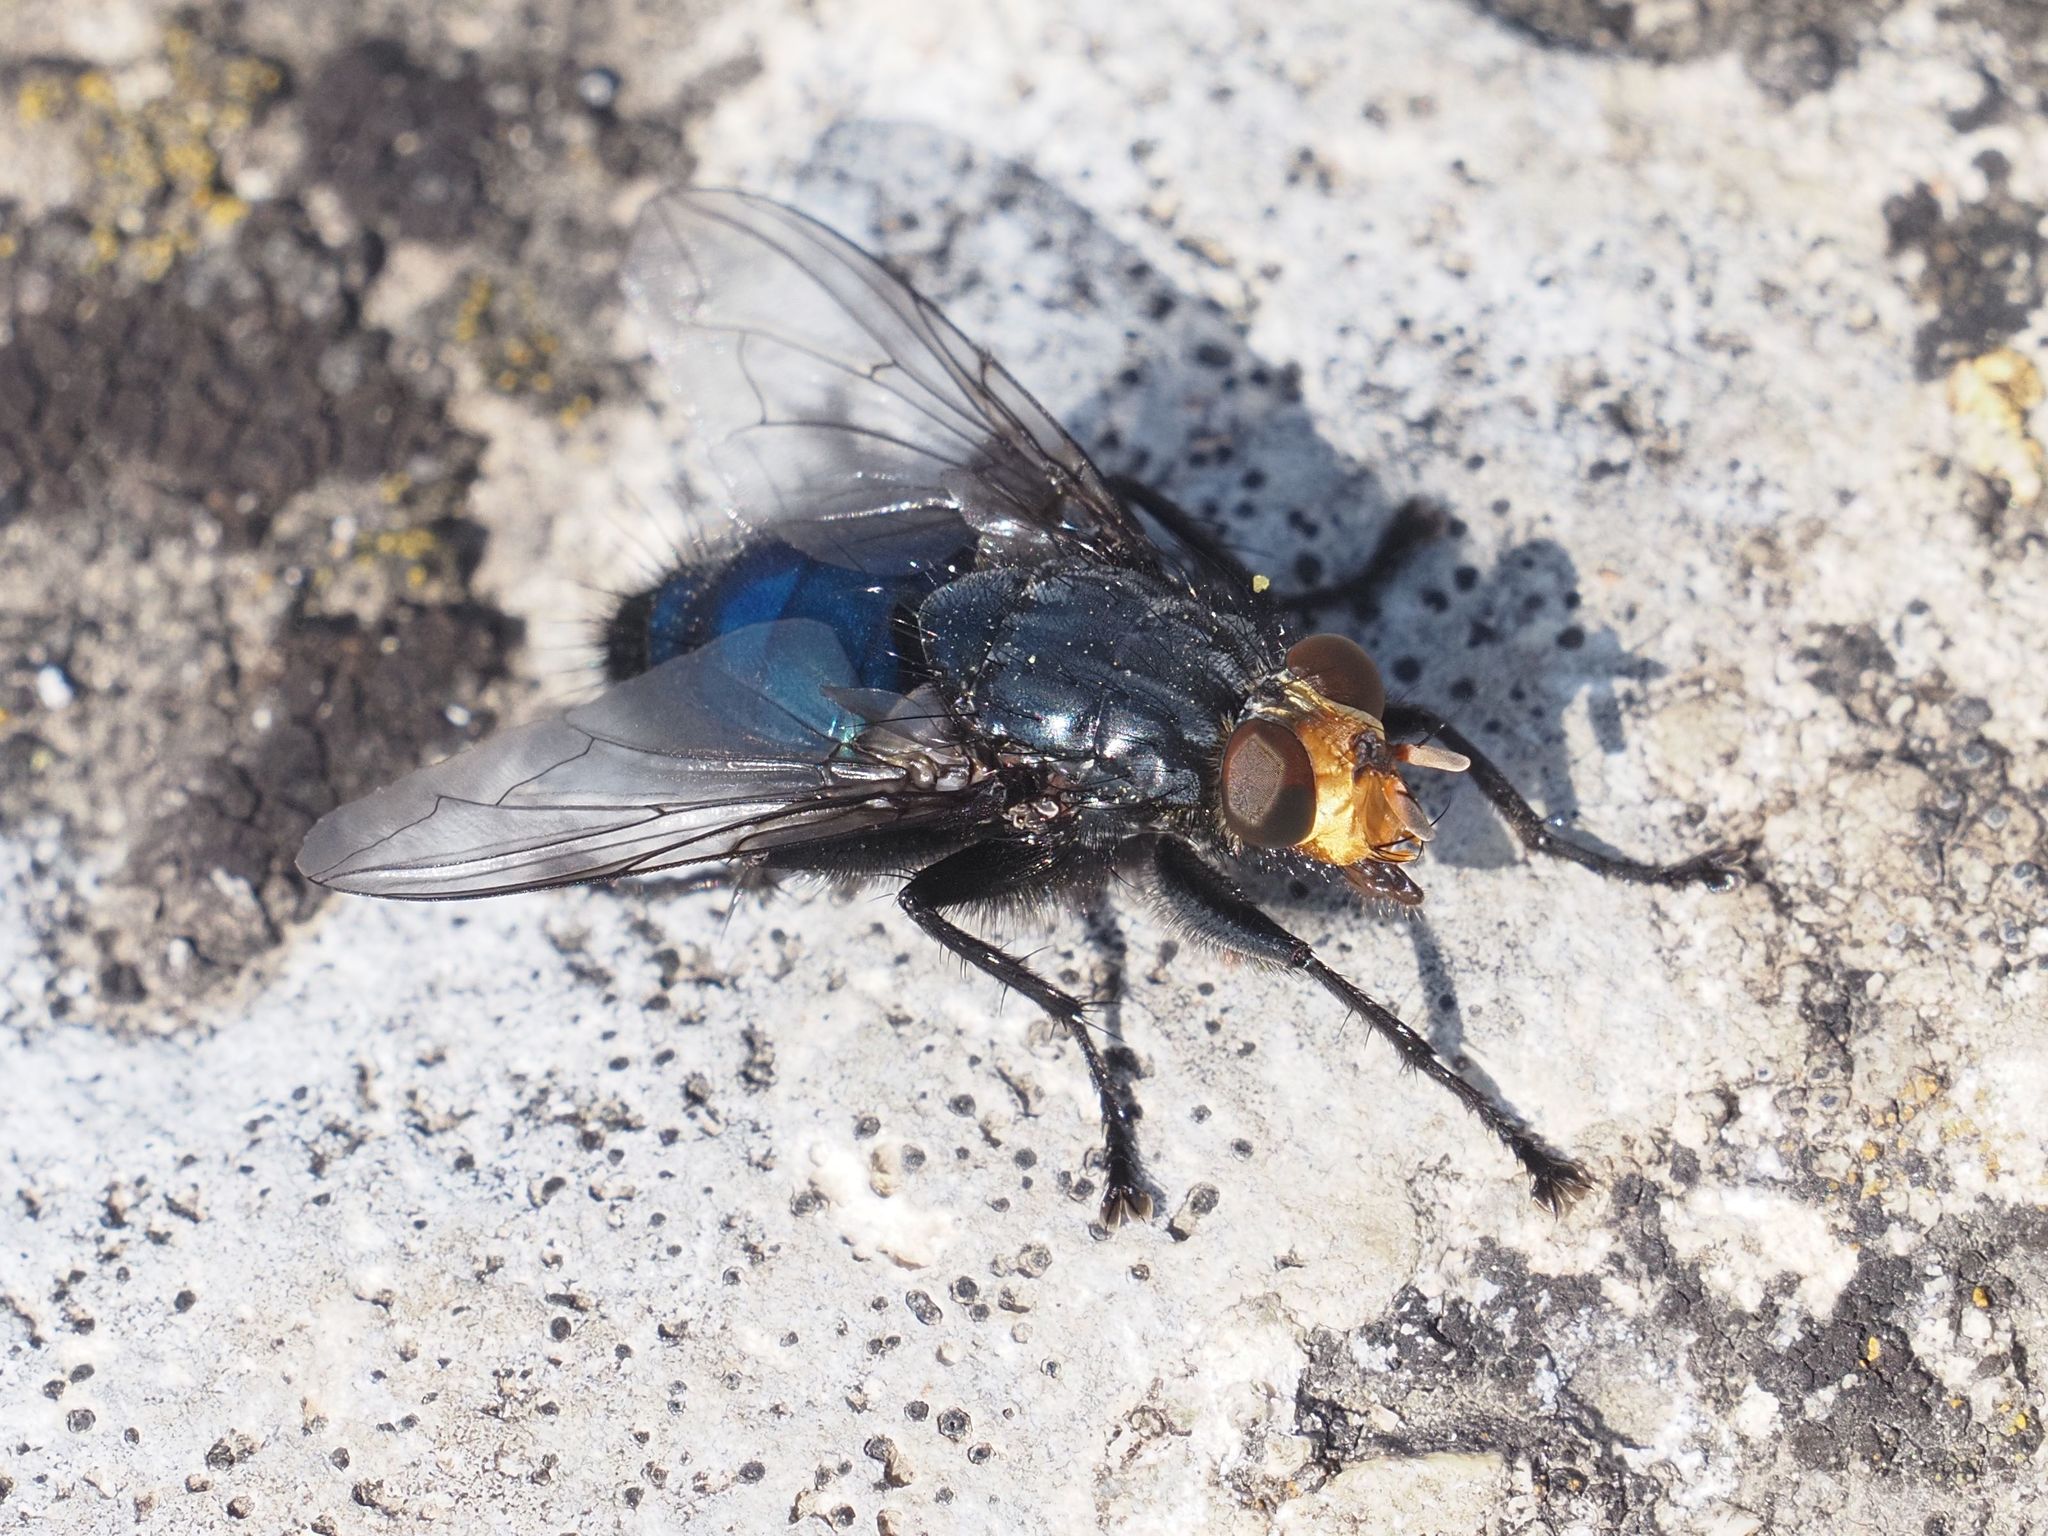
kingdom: Animalia
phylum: Arthropoda
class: Insecta
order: Diptera
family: Calliphoridae
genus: Cynomya
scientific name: Cynomya mortuorum
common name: Bluebottle blow fly
